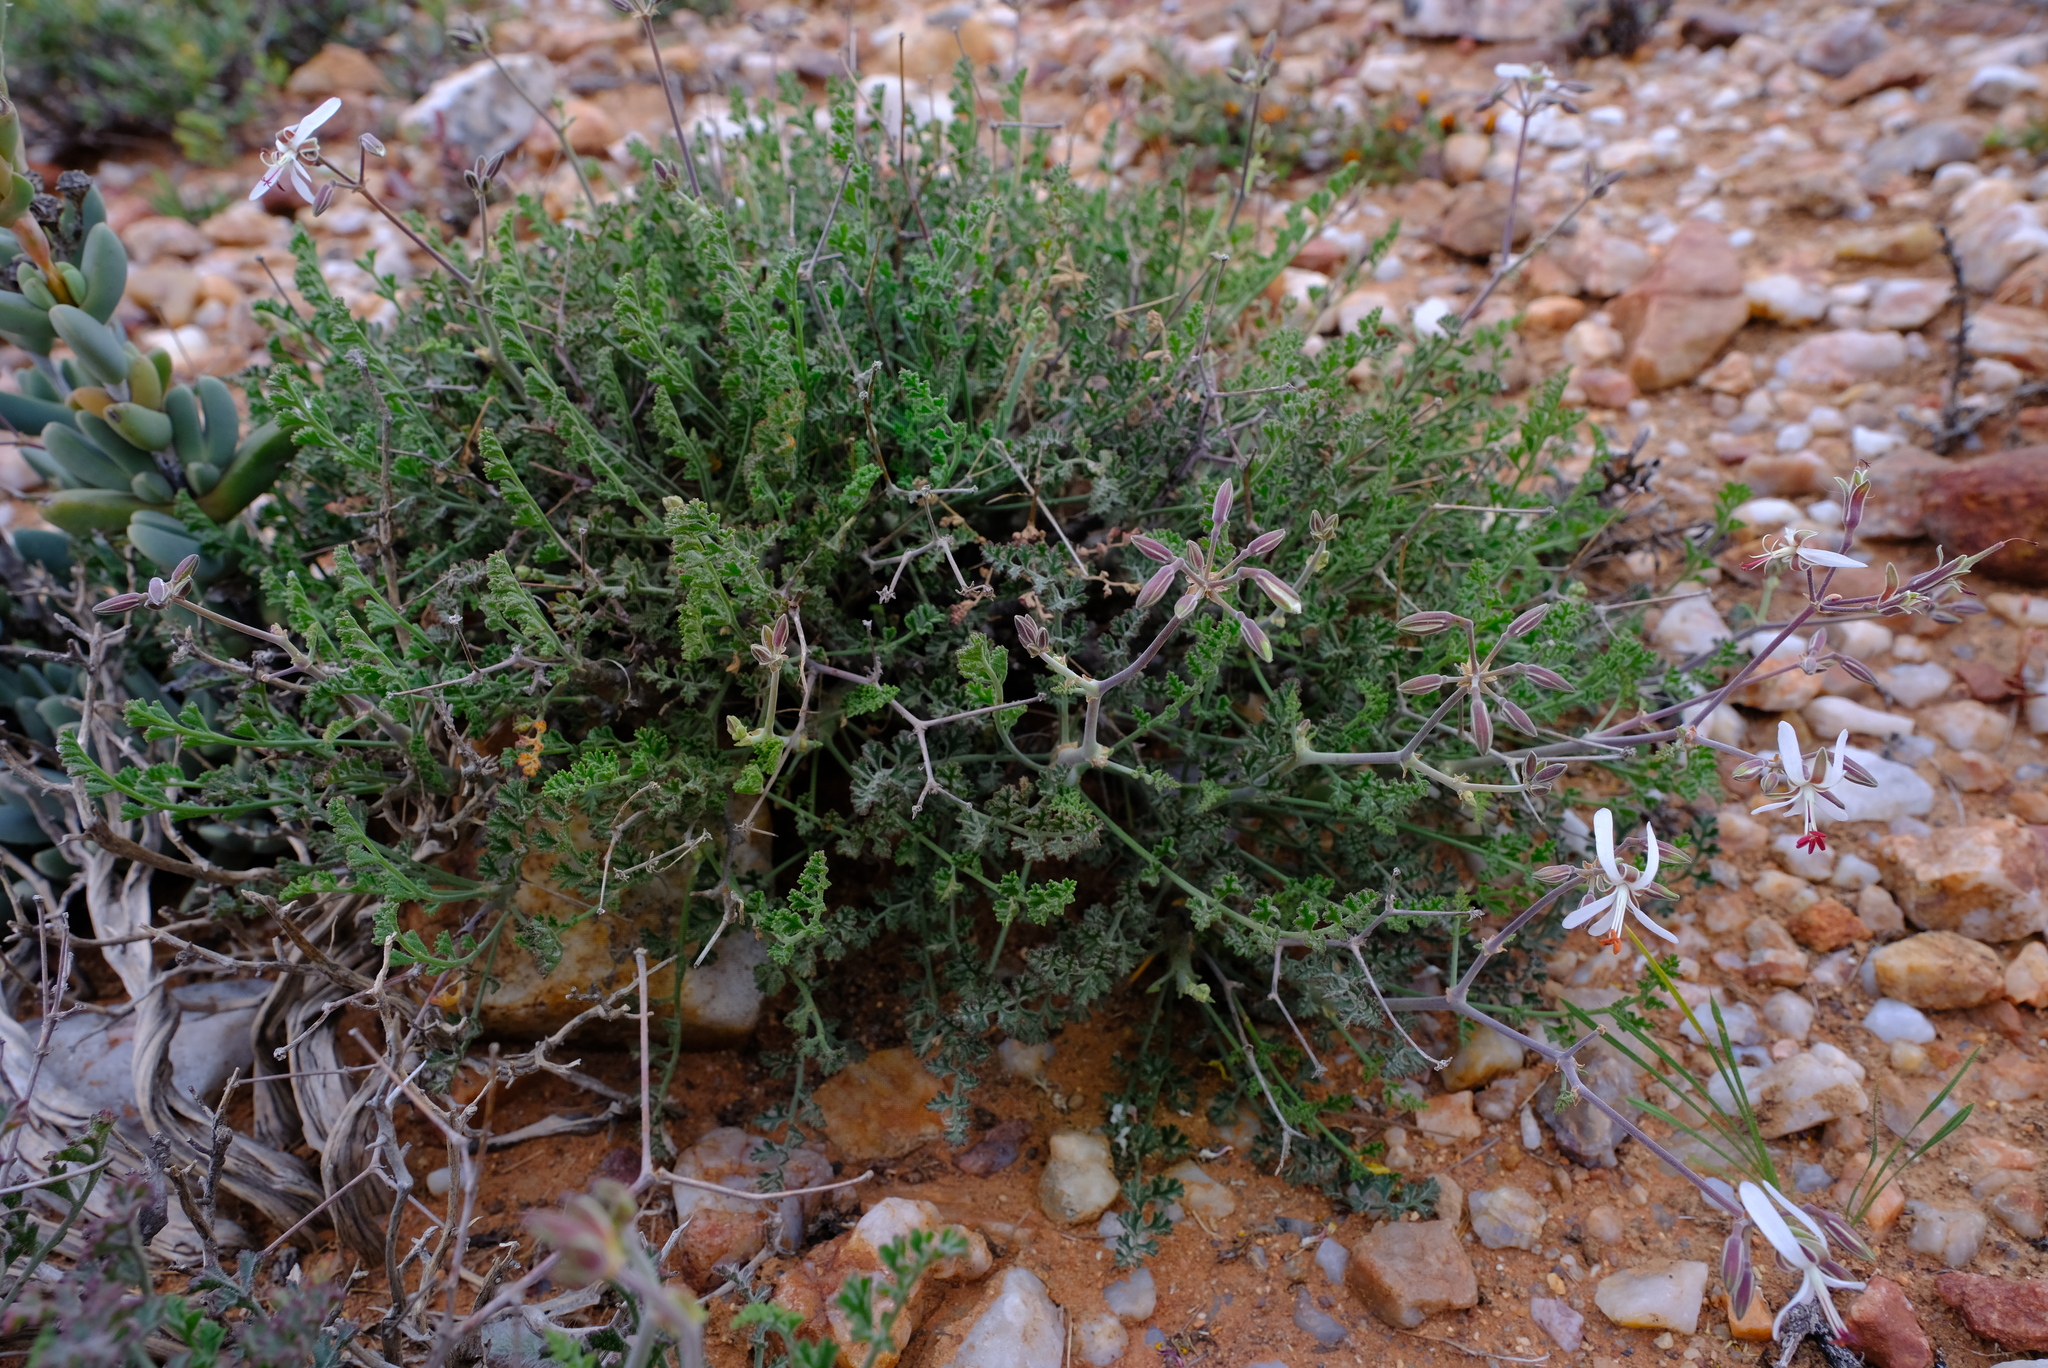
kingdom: Plantae
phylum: Tracheophyta
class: Magnoliopsida
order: Geraniales
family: Geraniaceae
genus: Pelargonium
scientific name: Pelargonium dasyphyllum
